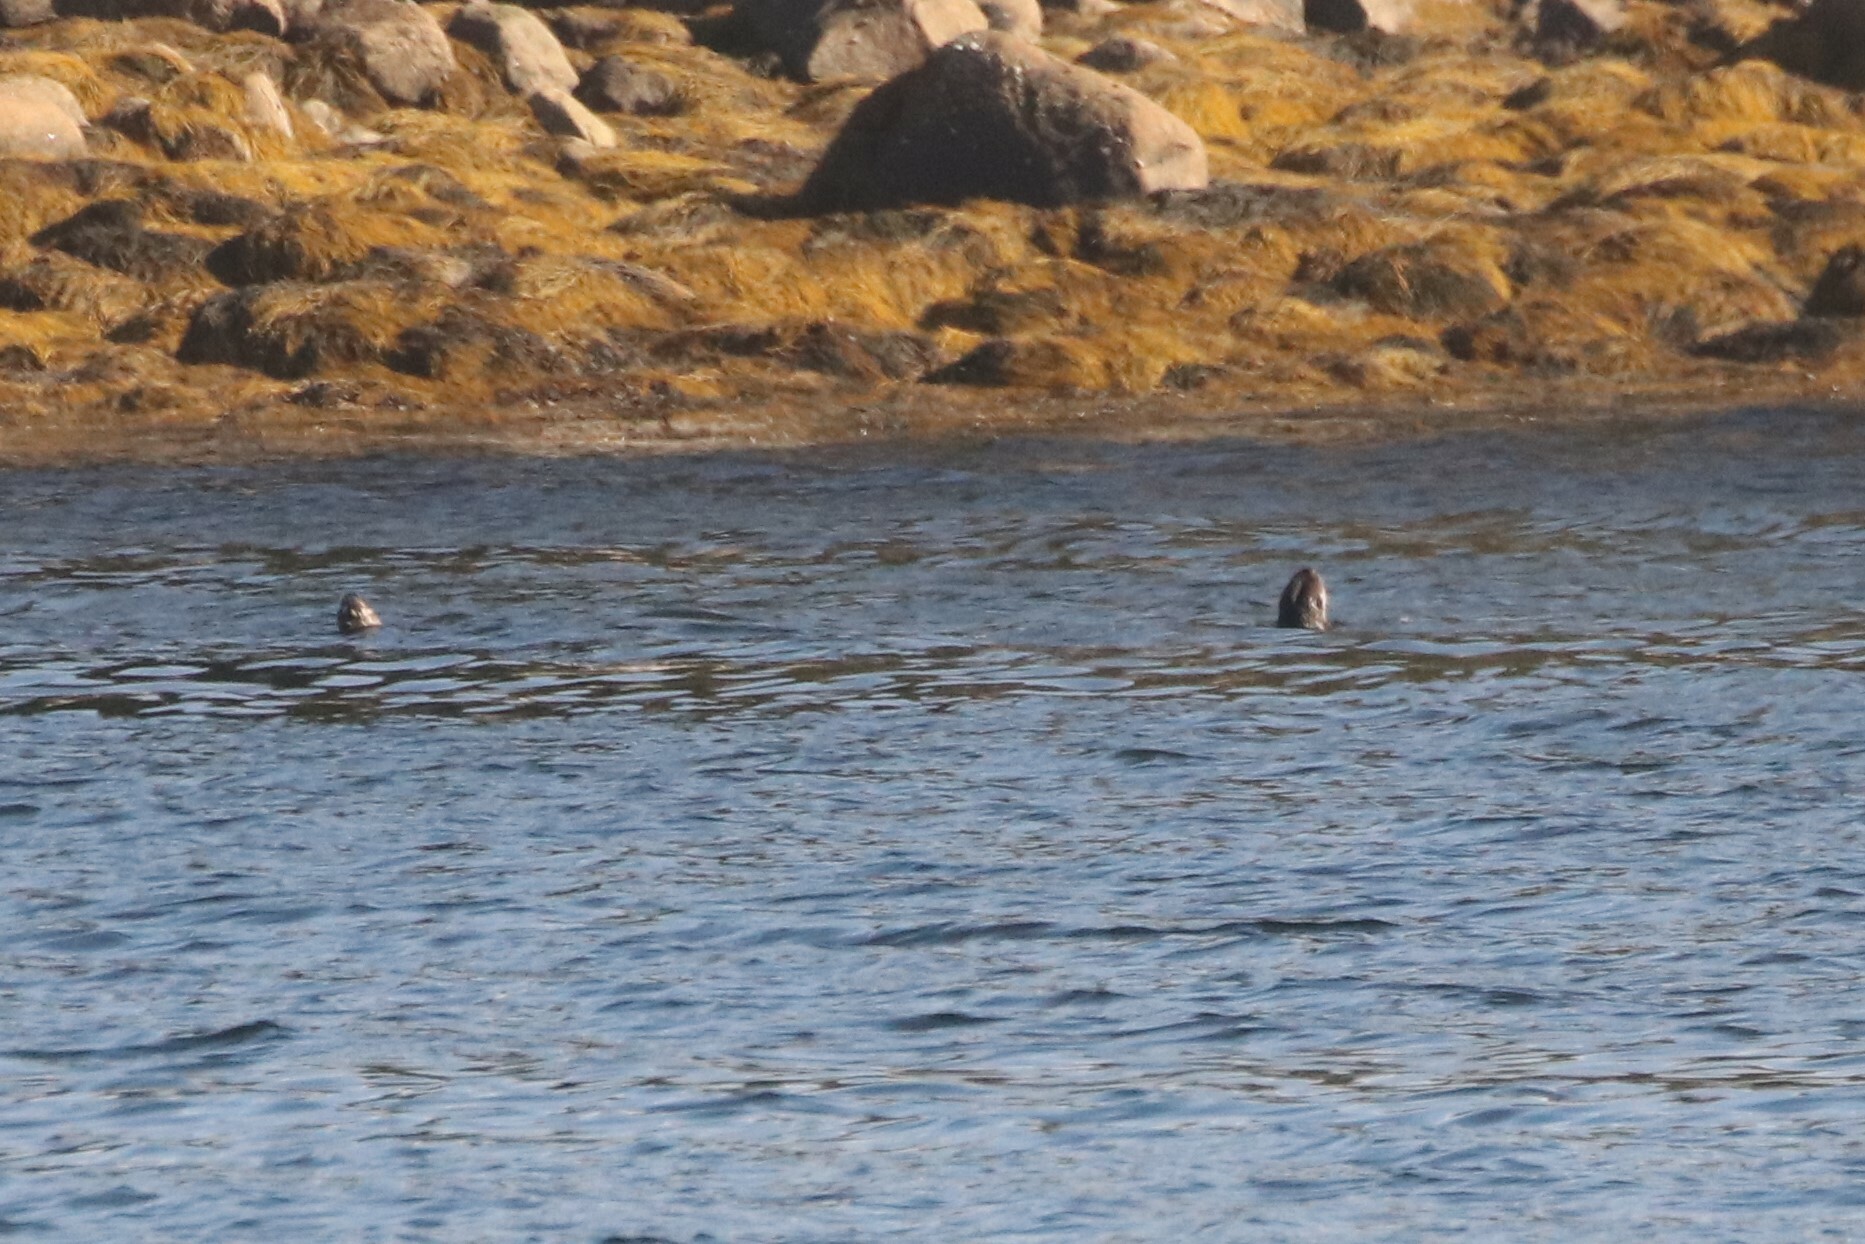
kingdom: Animalia
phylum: Chordata
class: Mammalia
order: Carnivora
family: Mustelidae
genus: Lontra
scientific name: Lontra canadensis
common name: North american river otter
